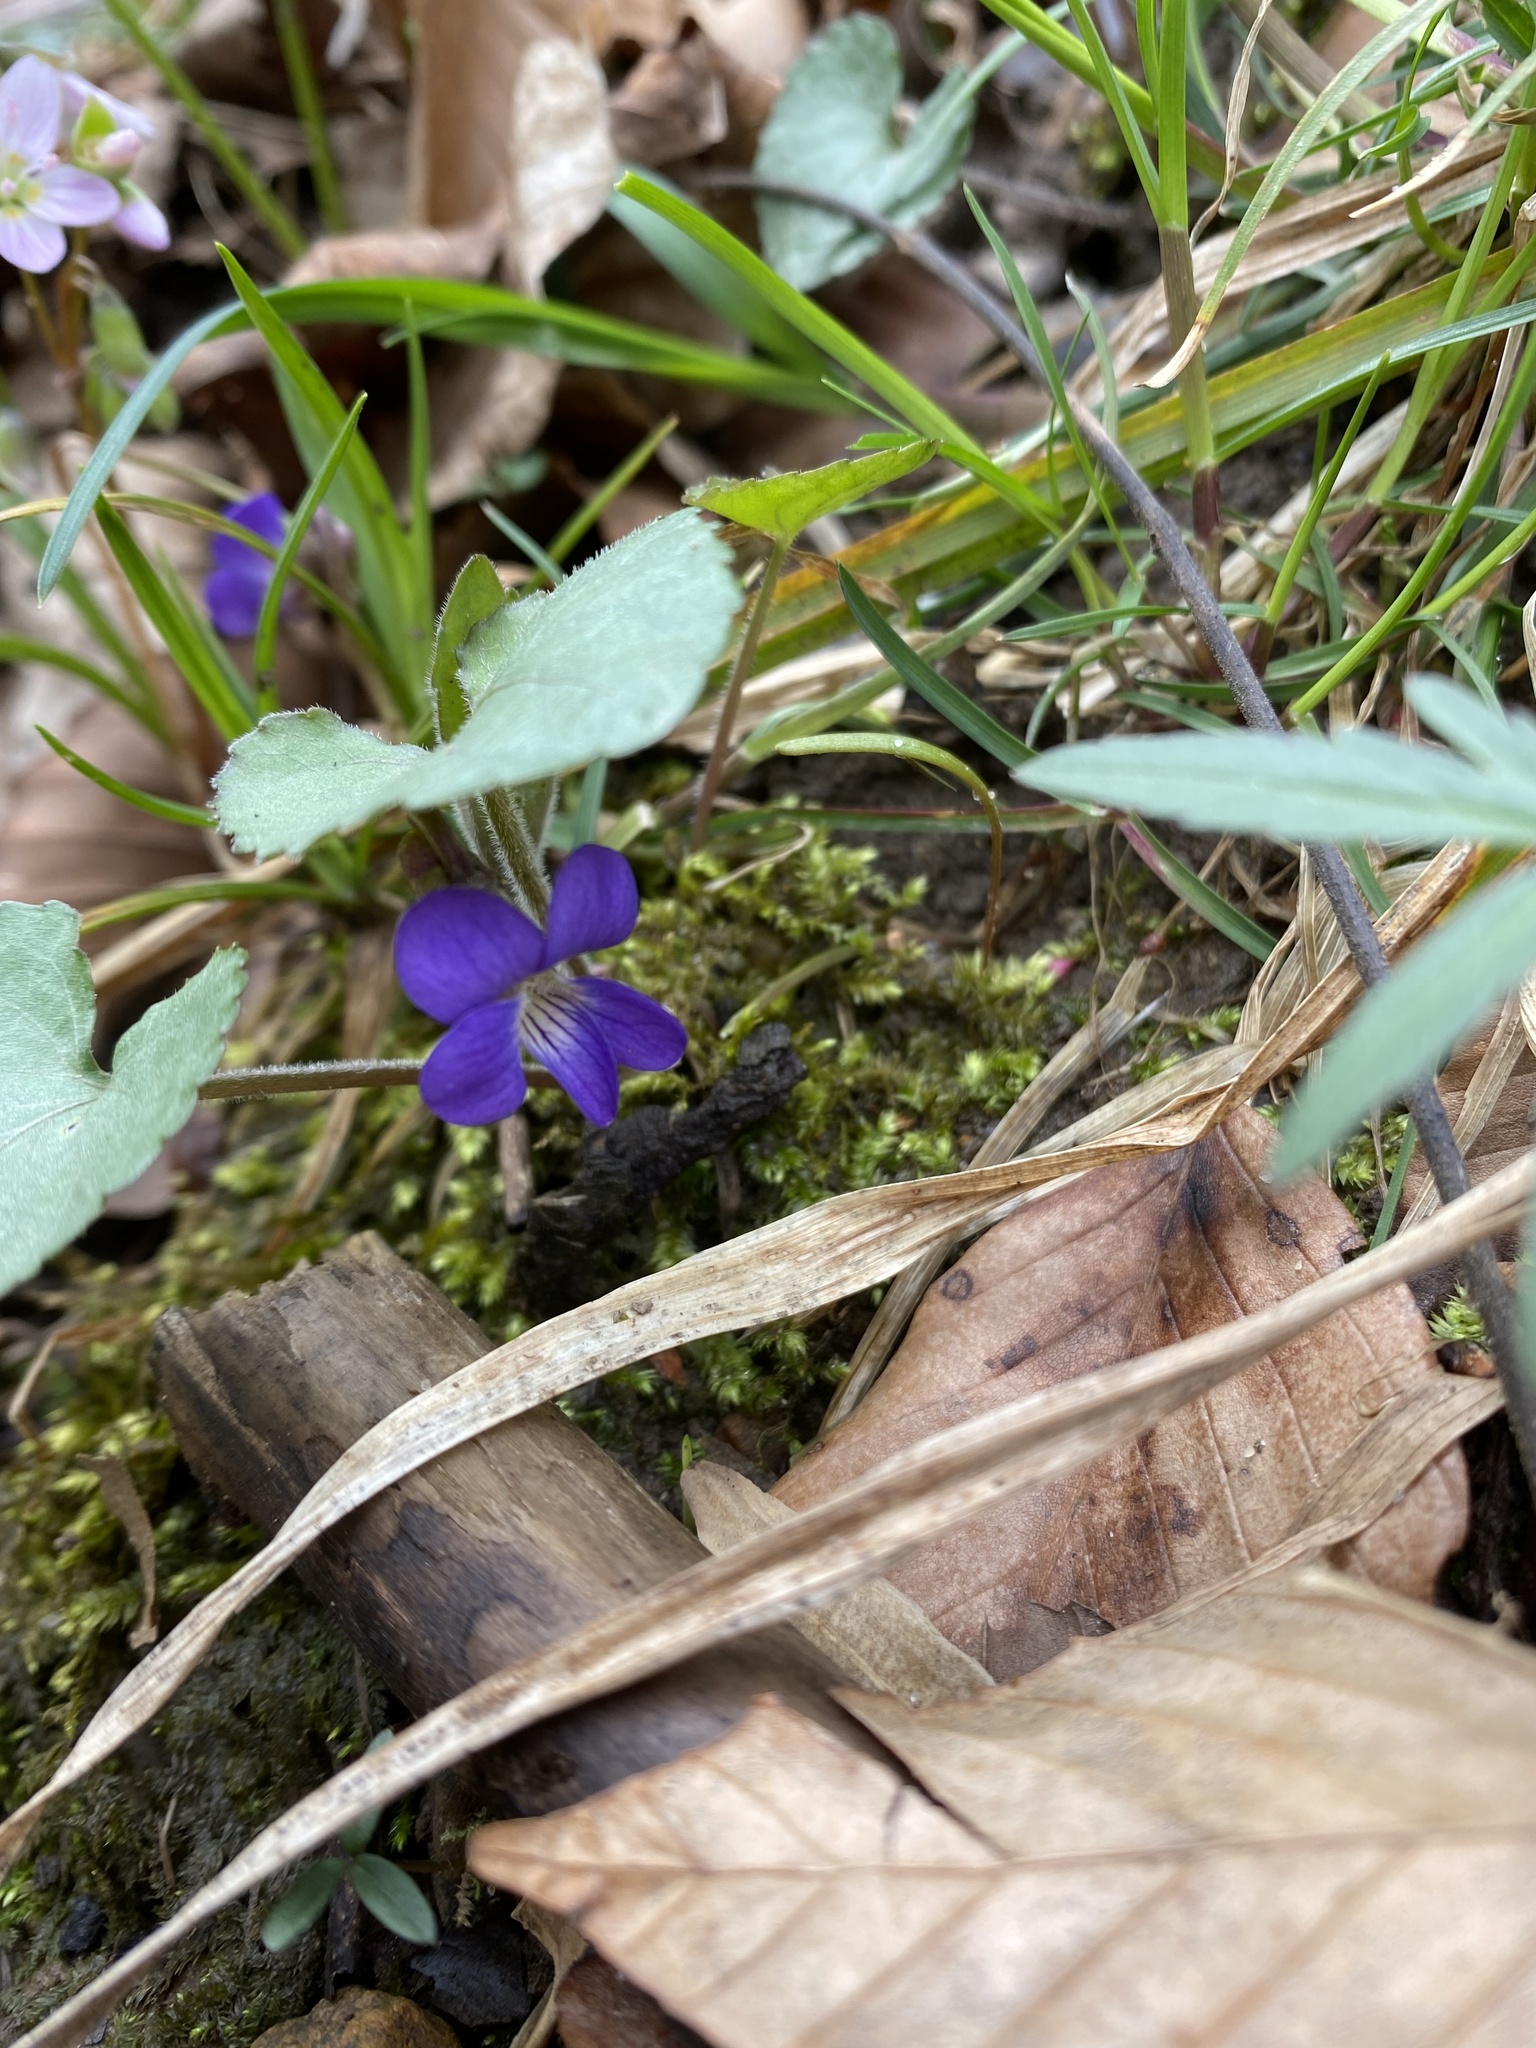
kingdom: Plantae
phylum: Tracheophyta
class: Magnoliopsida
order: Malpighiales
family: Violaceae
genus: Viola
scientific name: Viola sororia
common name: Dooryard violet
